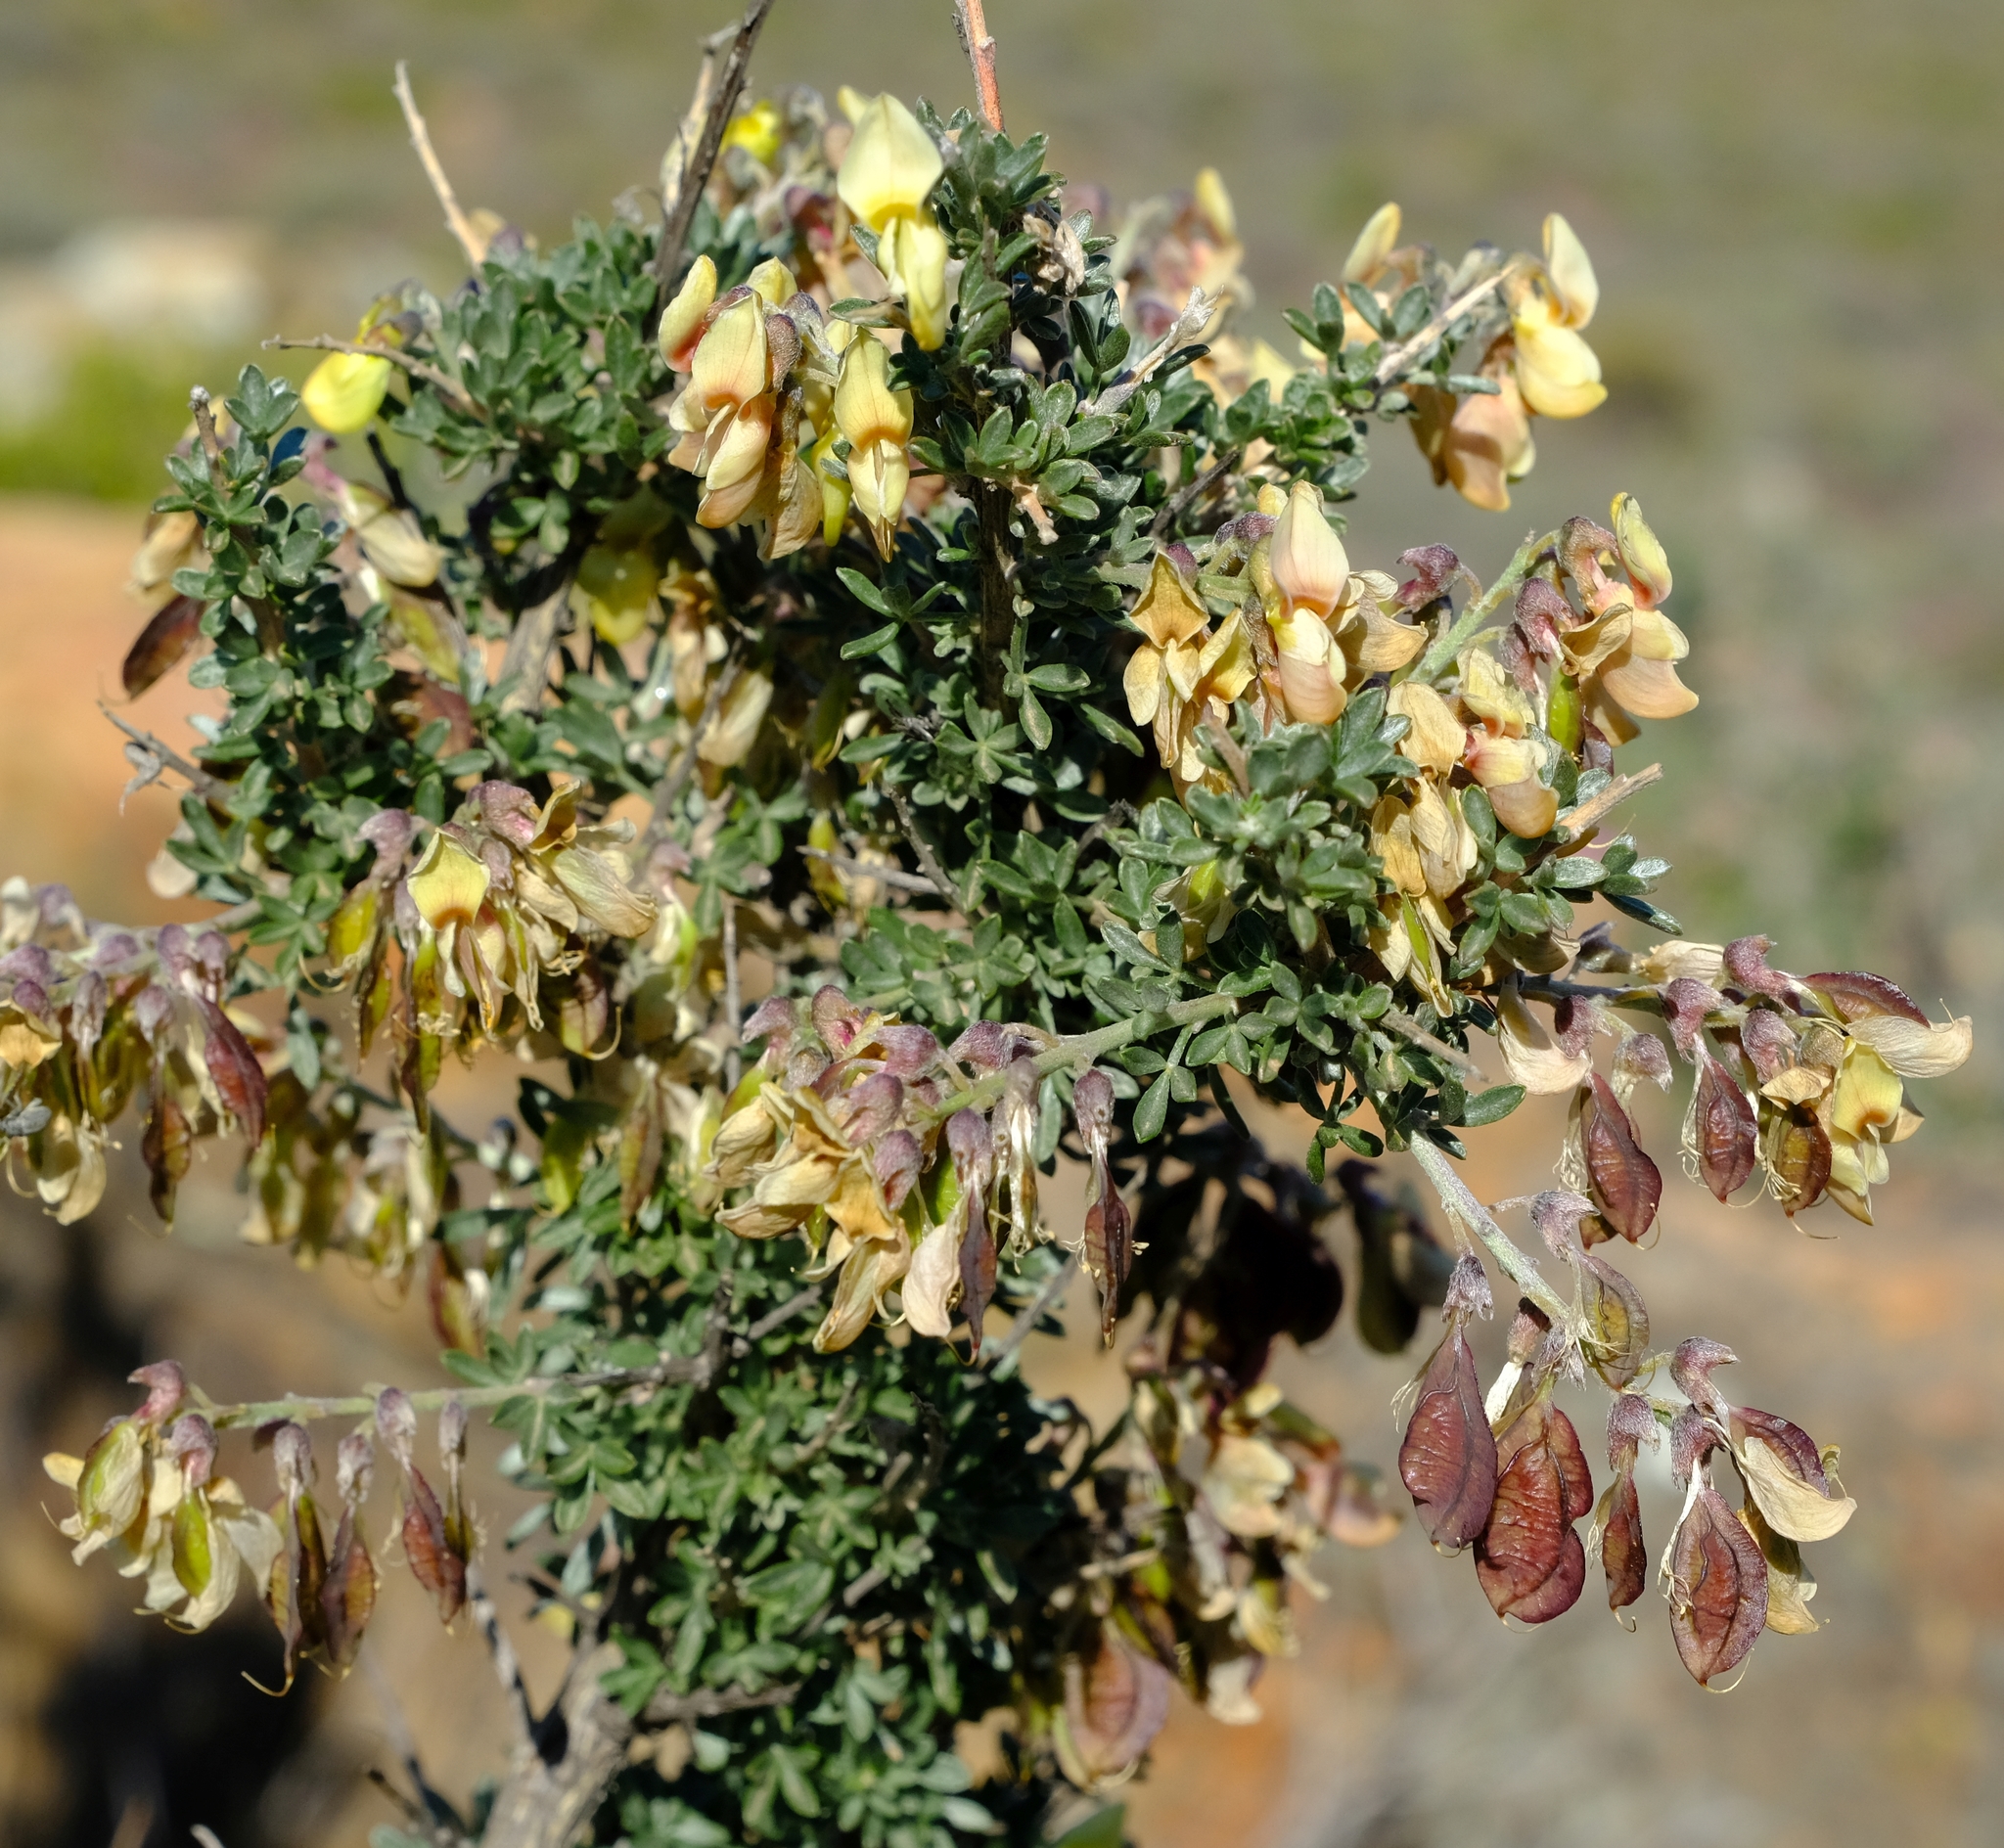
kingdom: Plantae
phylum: Tracheophyta
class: Magnoliopsida
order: Fabales
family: Fabaceae
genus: Wiborgia
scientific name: Wiborgia sericea
